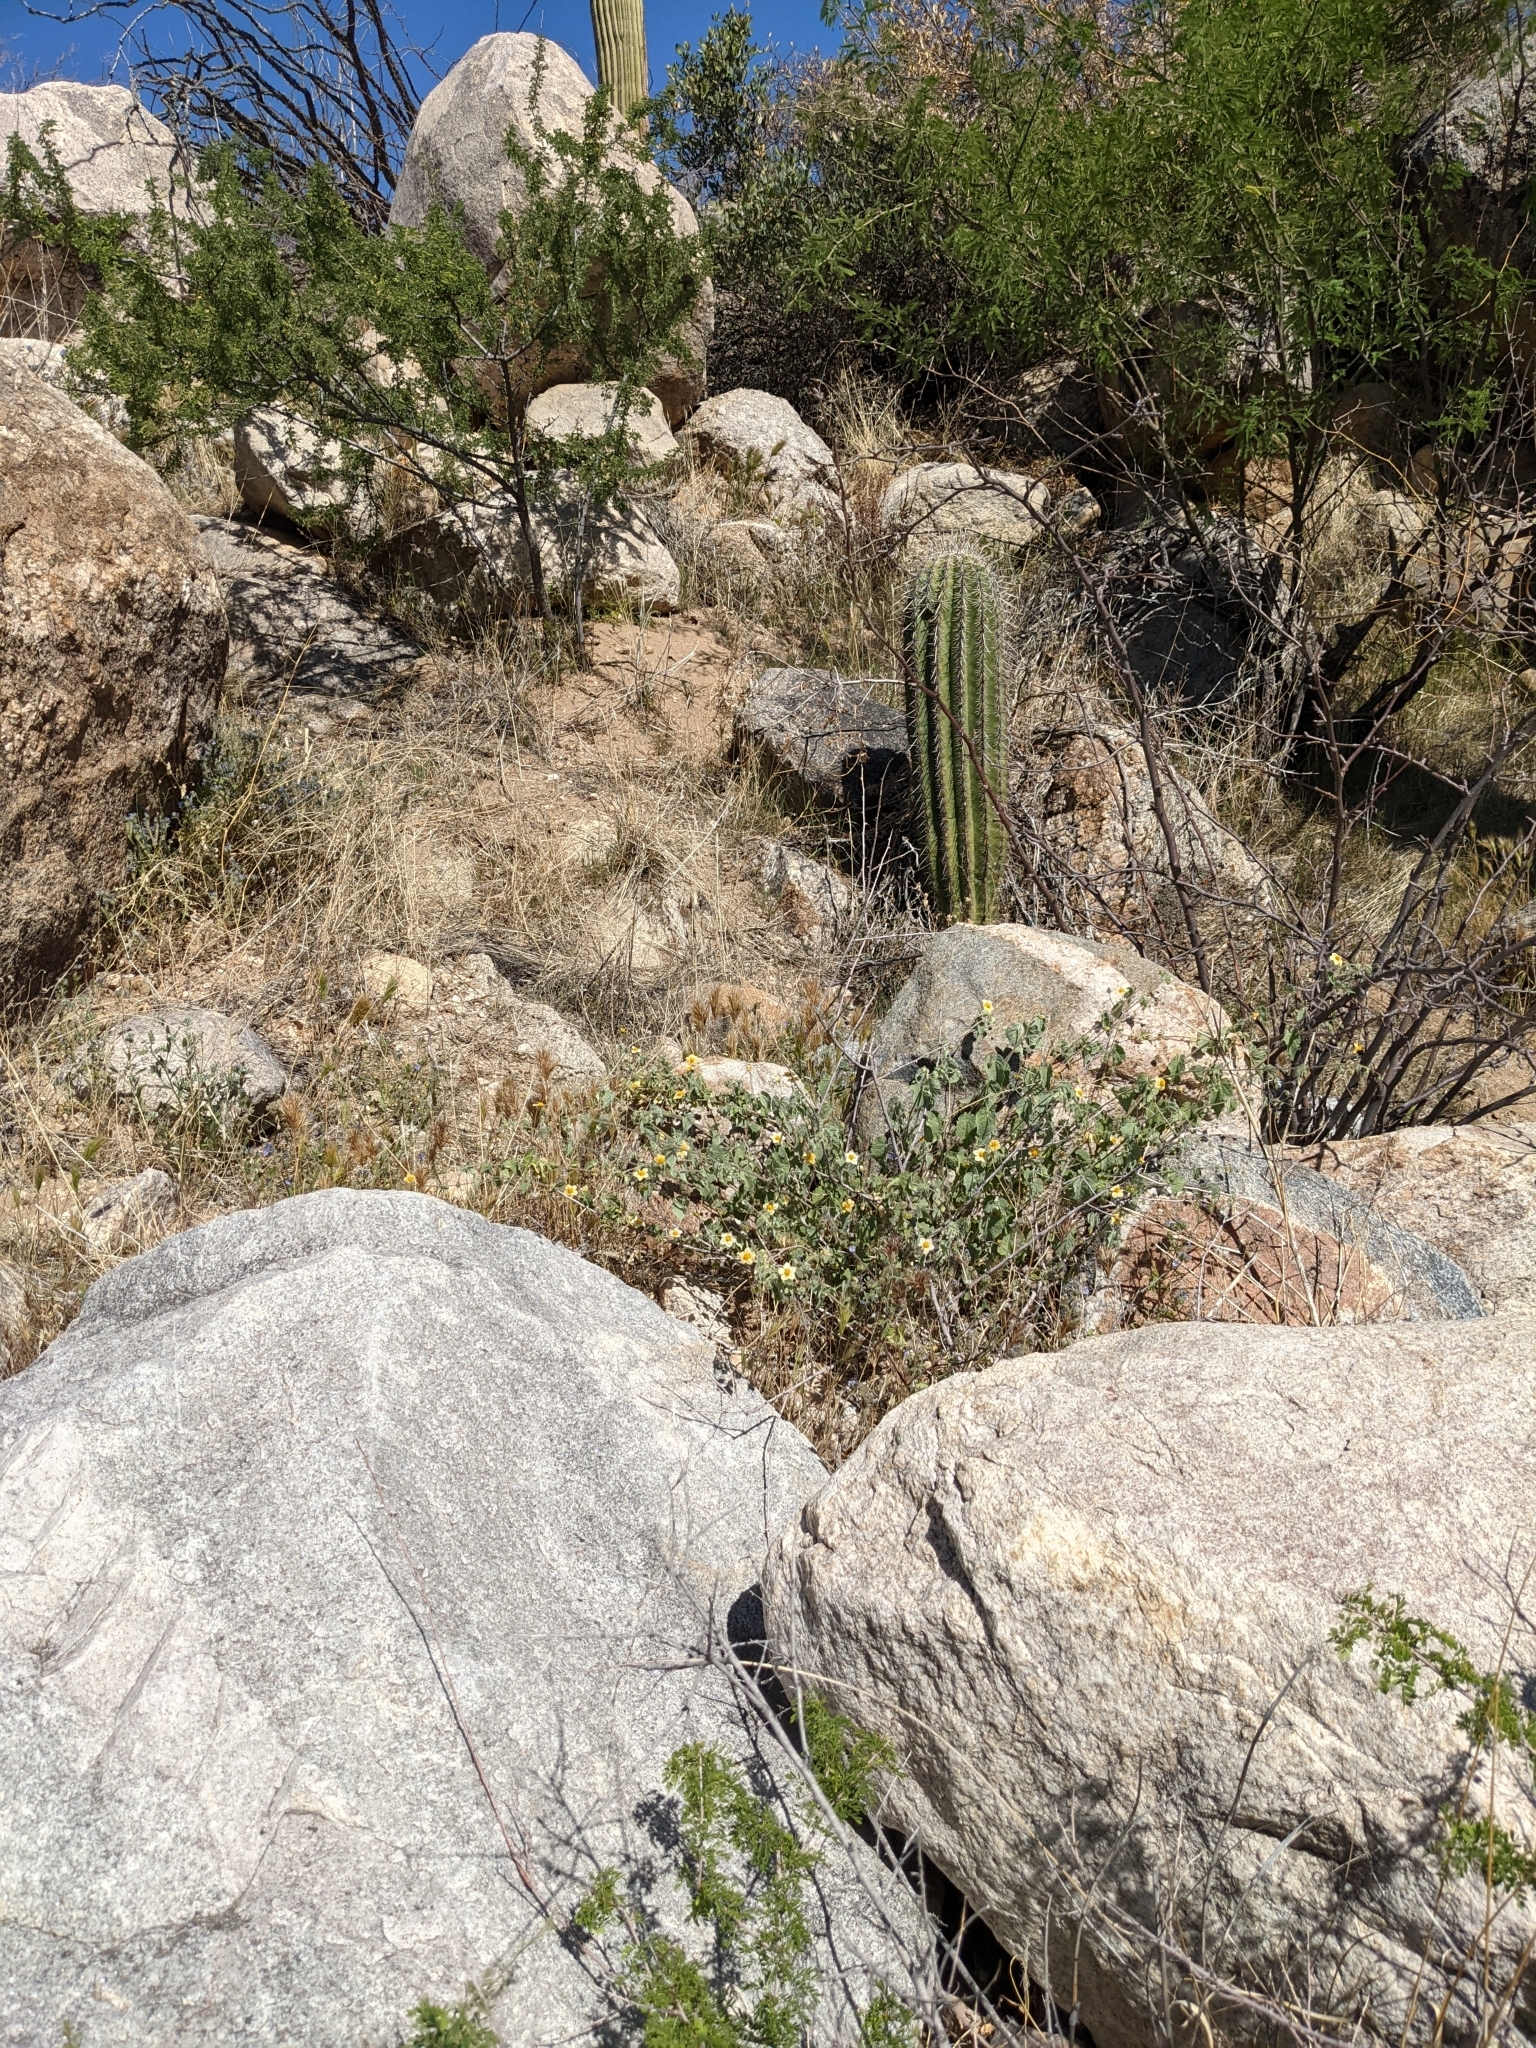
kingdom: Plantae
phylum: Tracheophyta
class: Magnoliopsida
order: Malvales
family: Malvaceae
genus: Herissantia
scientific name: Herissantia crispa
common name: Bladdermallow
